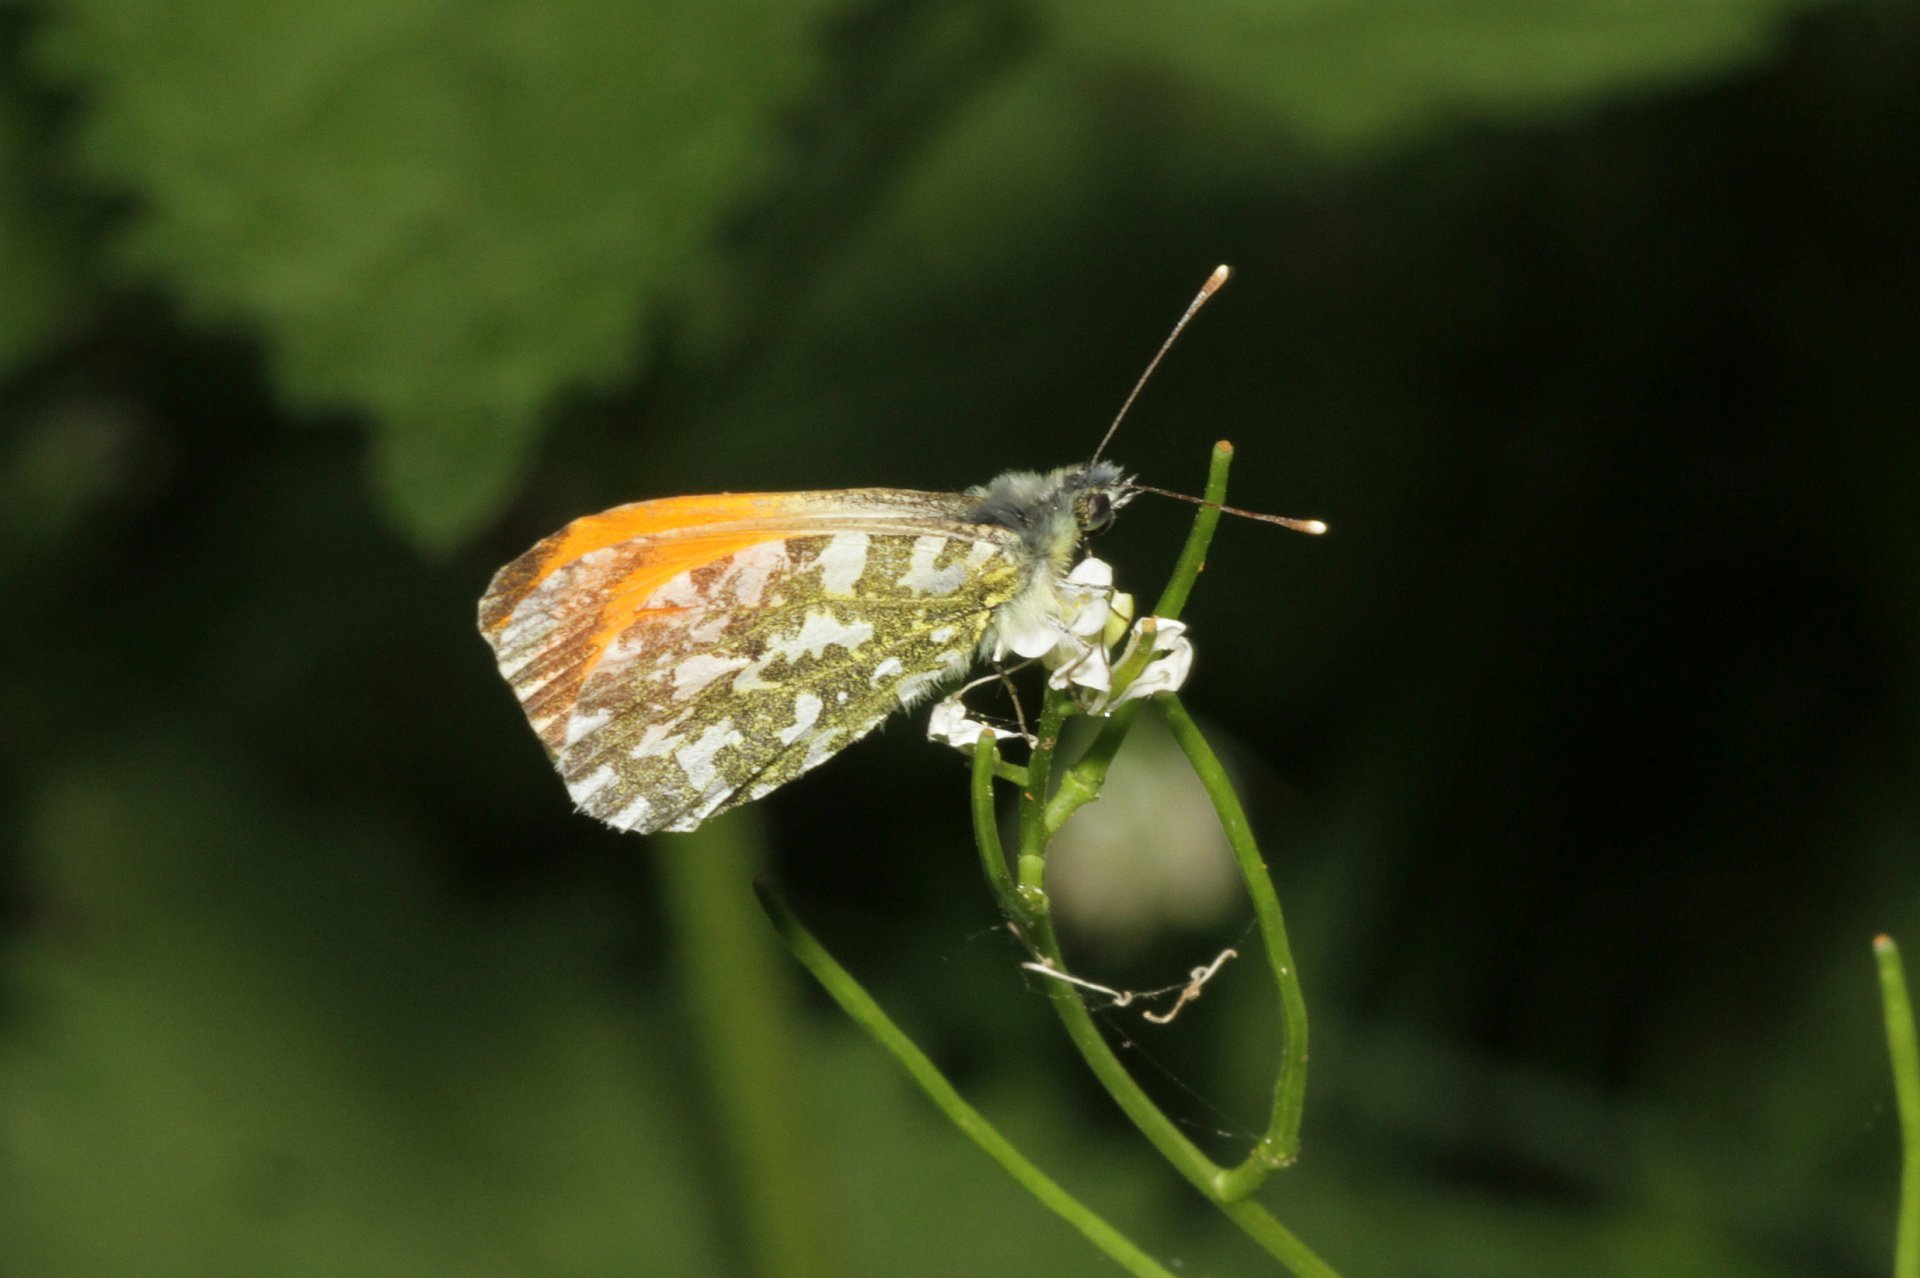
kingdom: Animalia
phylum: Arthropoda
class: Insecta
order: Lepidoptera
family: Pieridae
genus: Anthocharis
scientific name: Anthocharis cardamines
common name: Orange-tip
